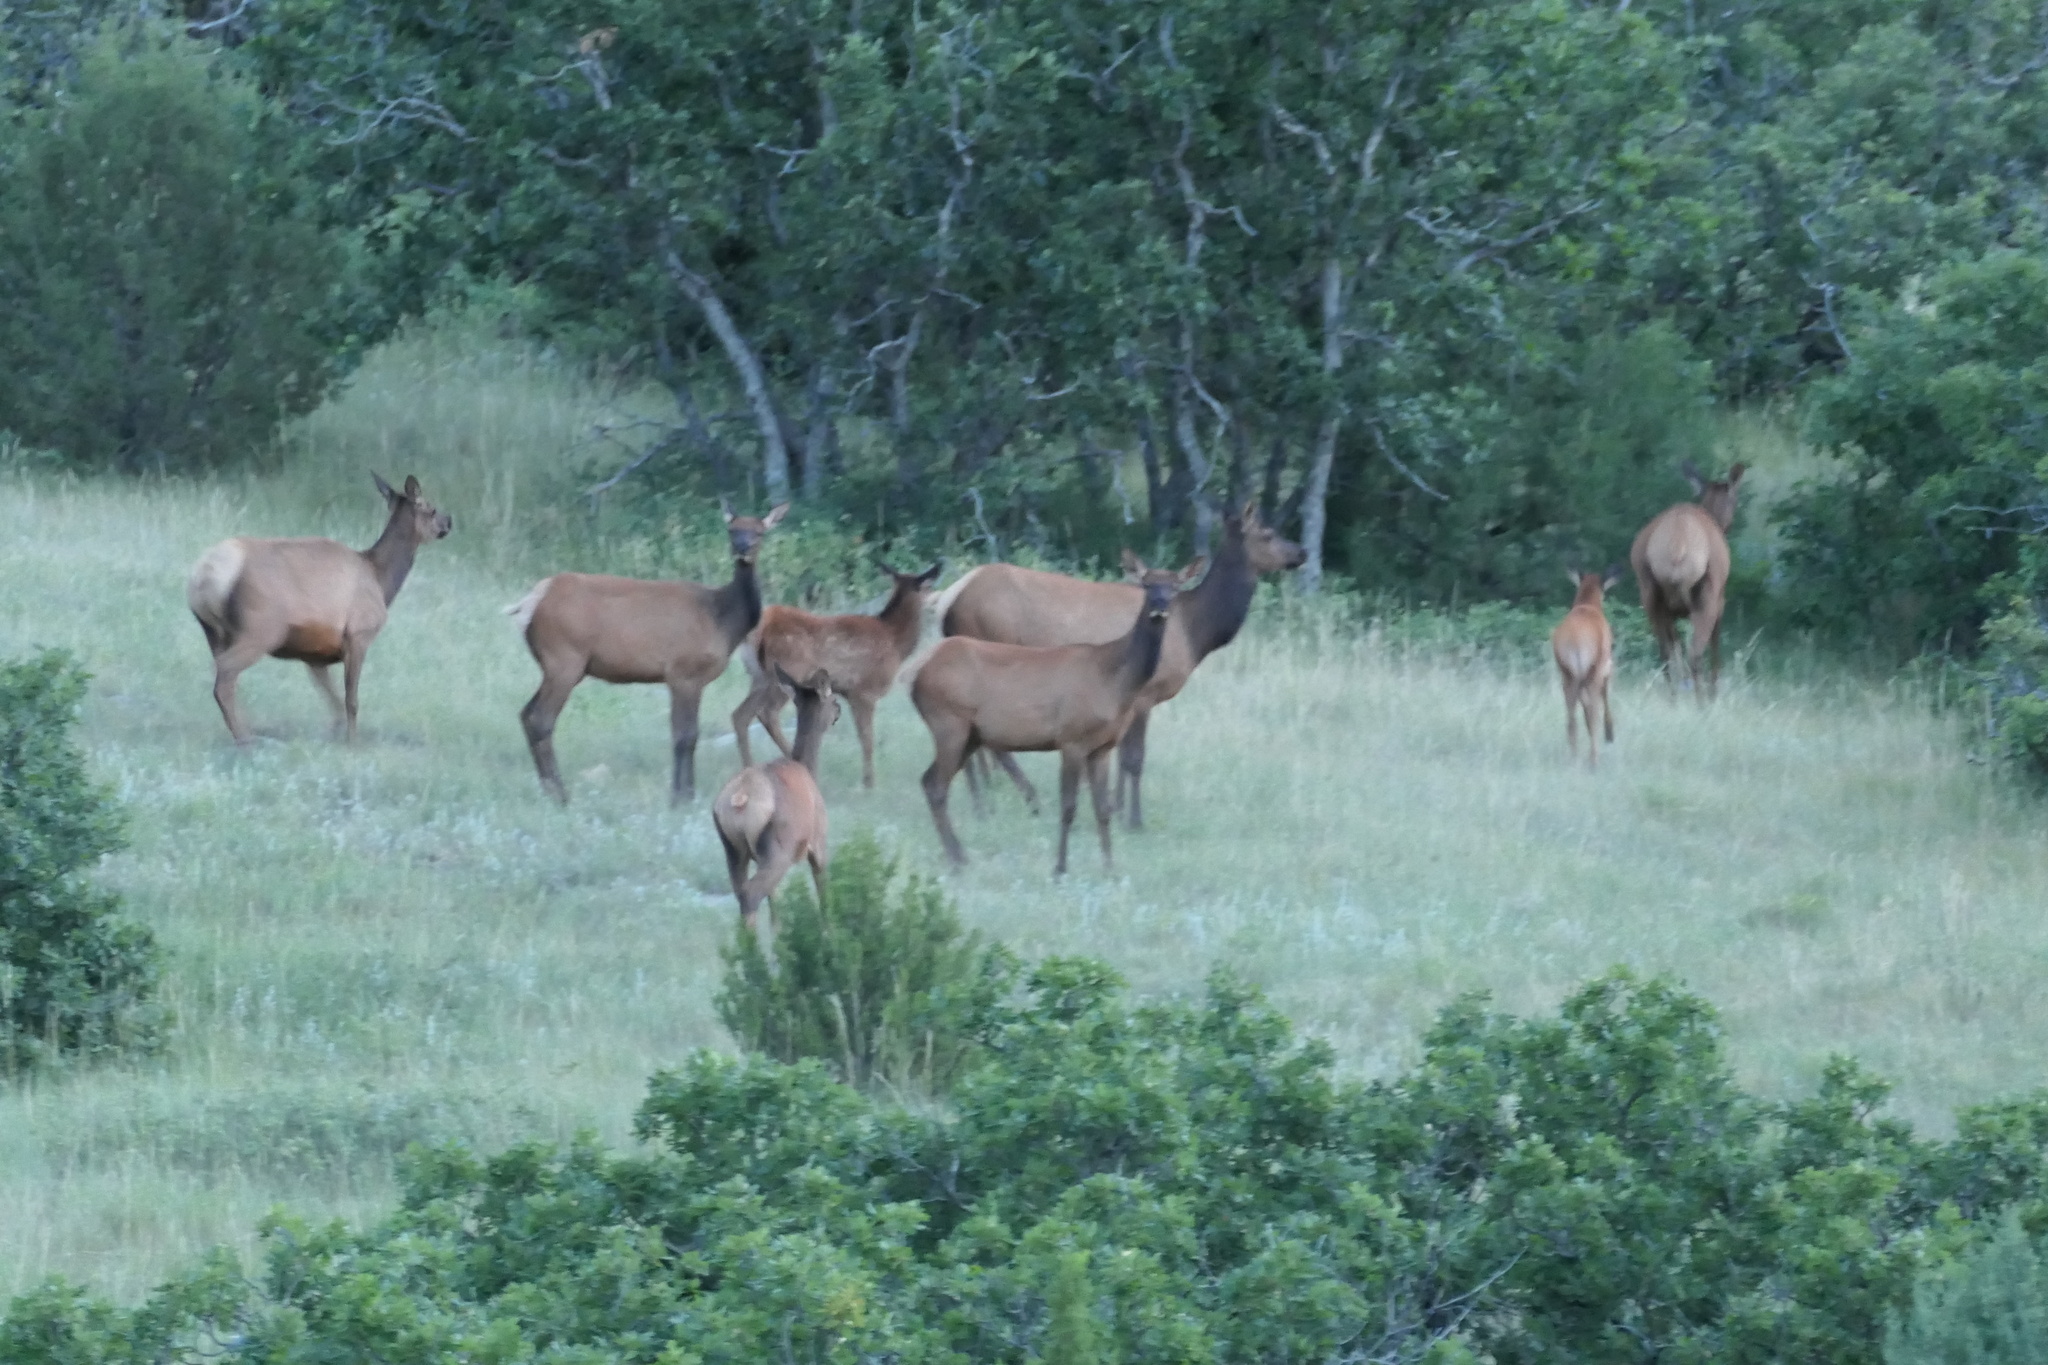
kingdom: Animalia
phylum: Chordata
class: Mammalia
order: Artiodactyla
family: Cervidae
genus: Cervus
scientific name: Cervus elaphus
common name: Red deer
